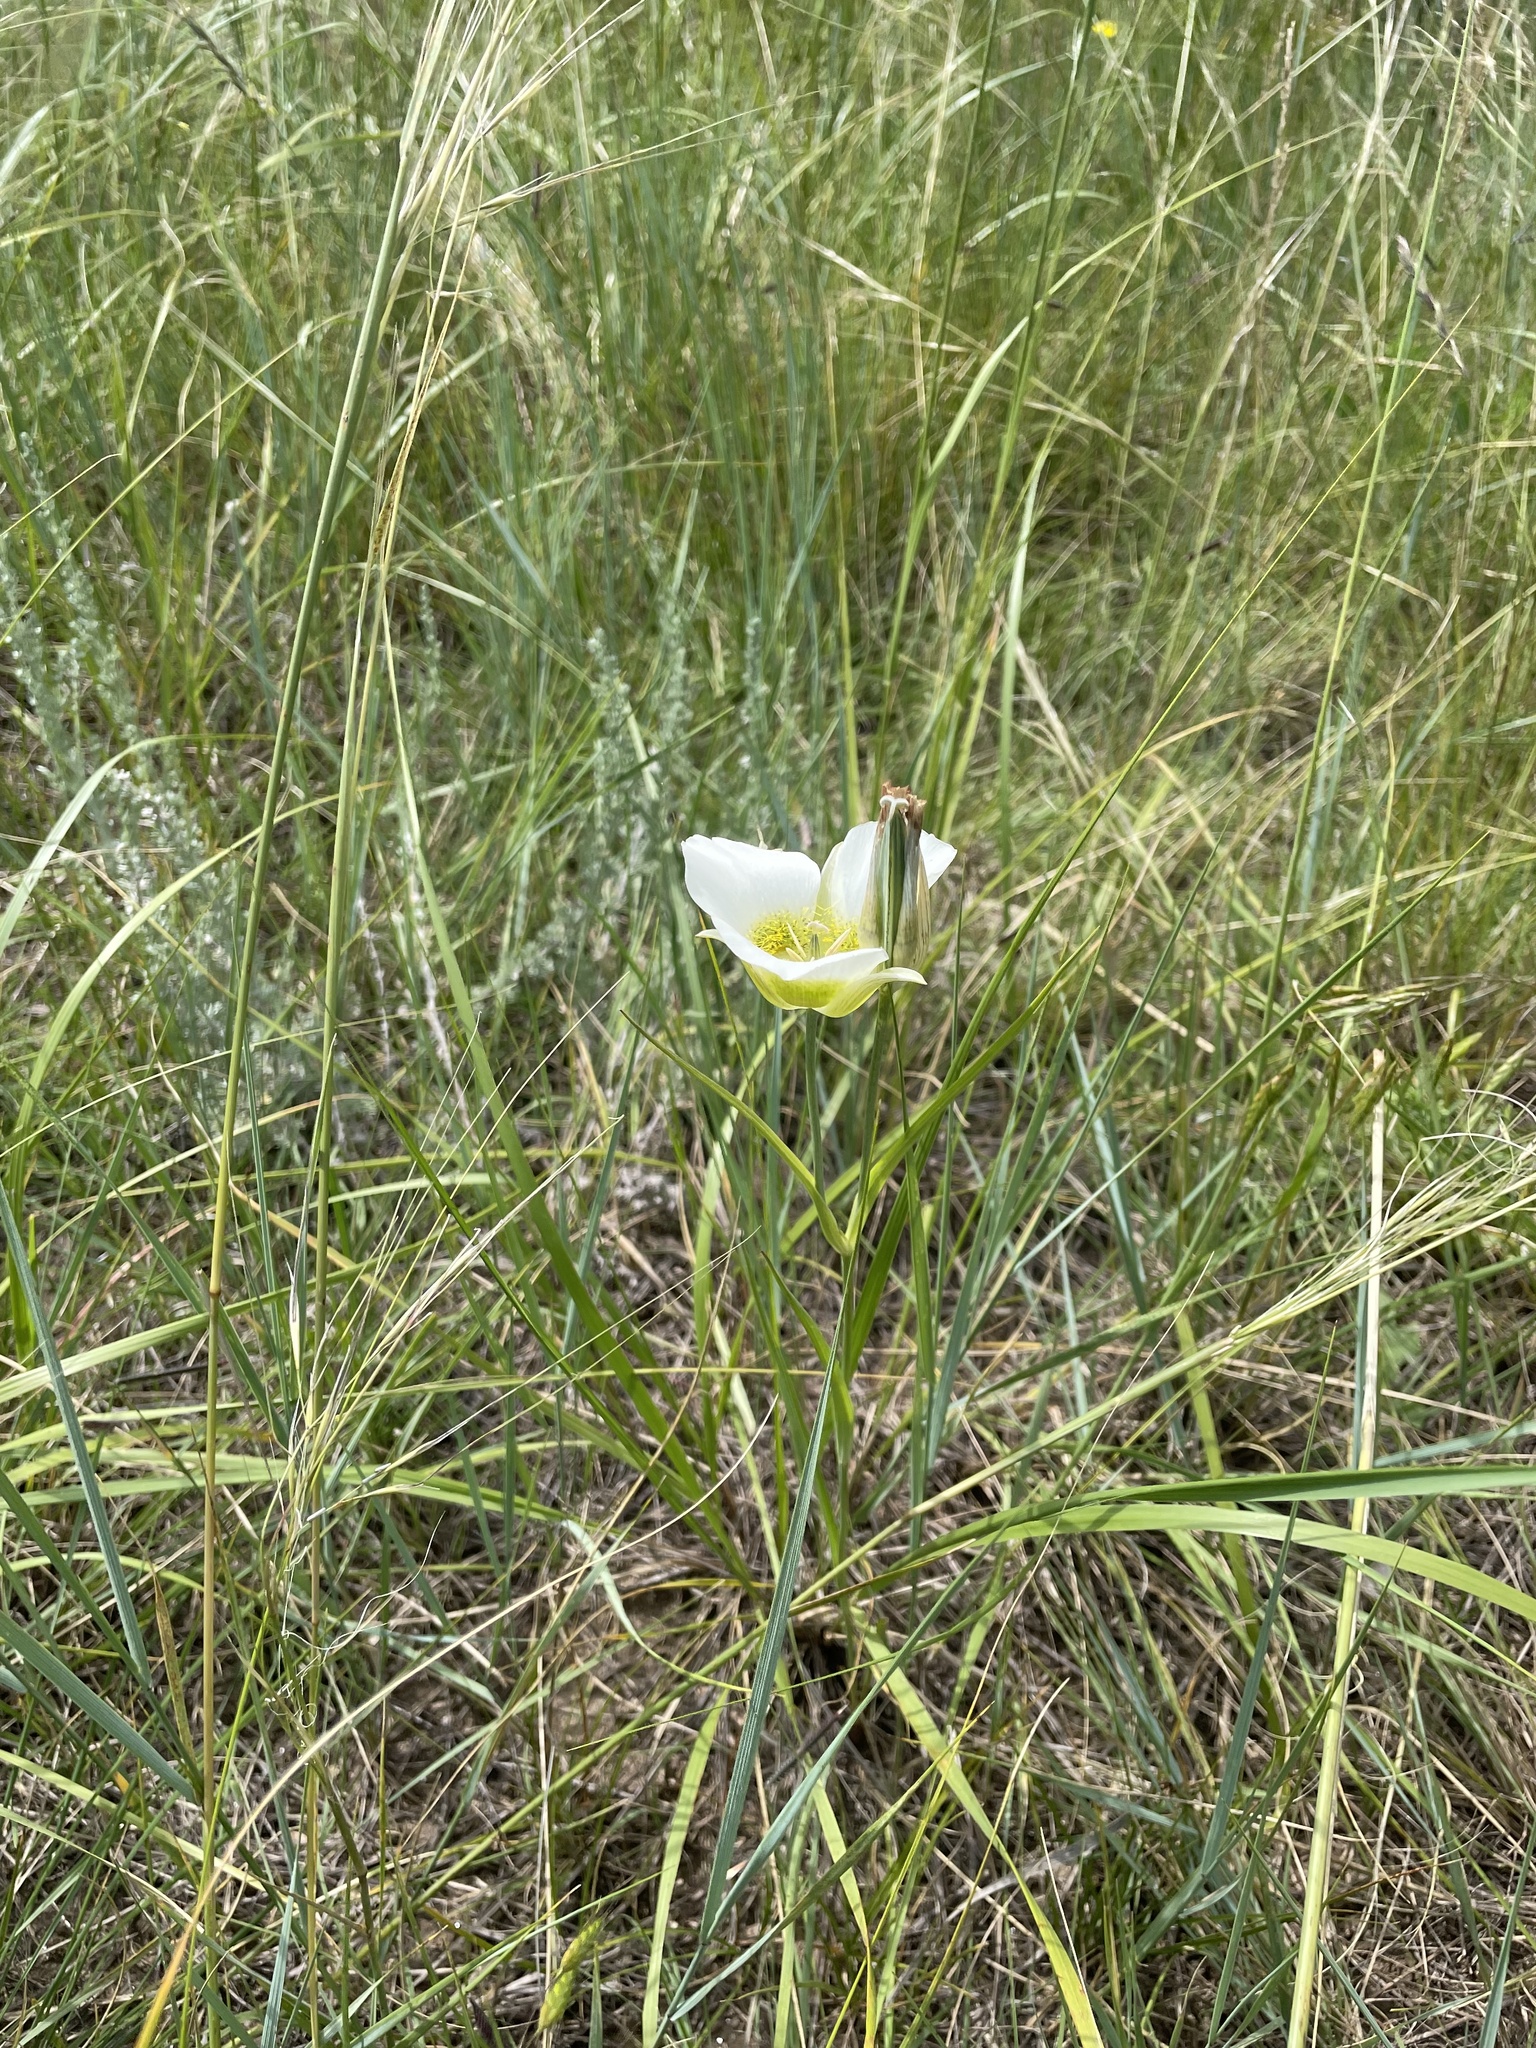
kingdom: Plantae
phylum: Tracheophyta
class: Liliopsida
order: Liliales
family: Liliaceae
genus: Calochortus
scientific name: Calochortus gunnisonii
